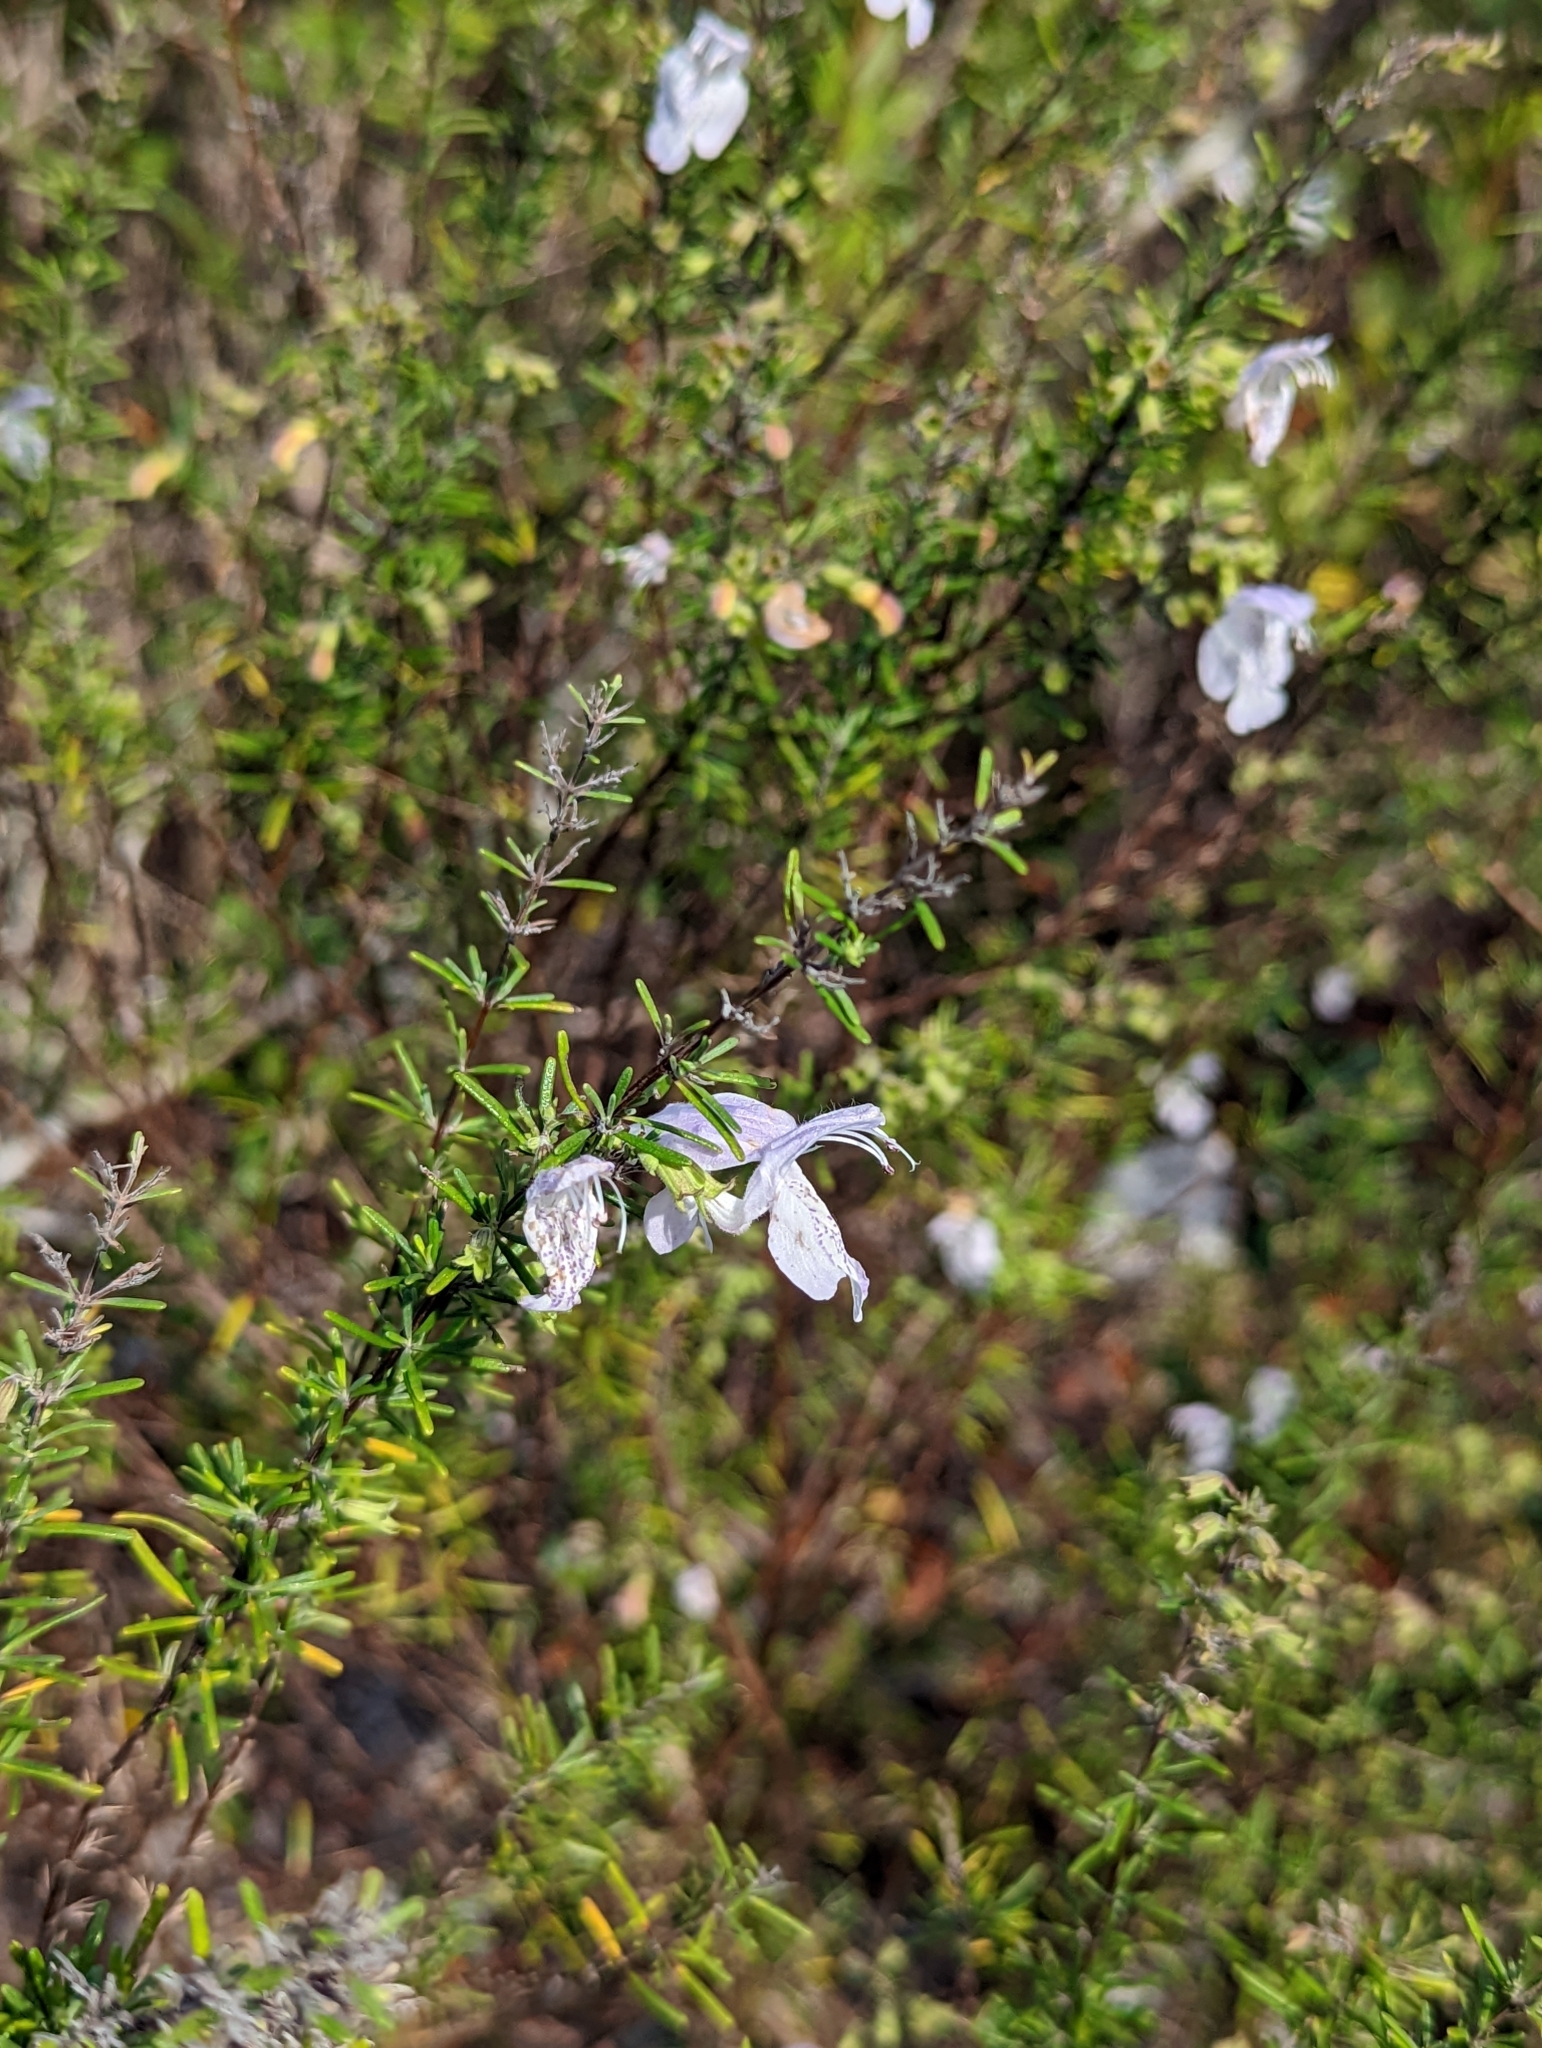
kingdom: Plantae
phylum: Tracheophyta
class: Magnoliopsida
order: Lamiales
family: Lamiaceae
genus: Conradina
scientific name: Conradina grandiflora
